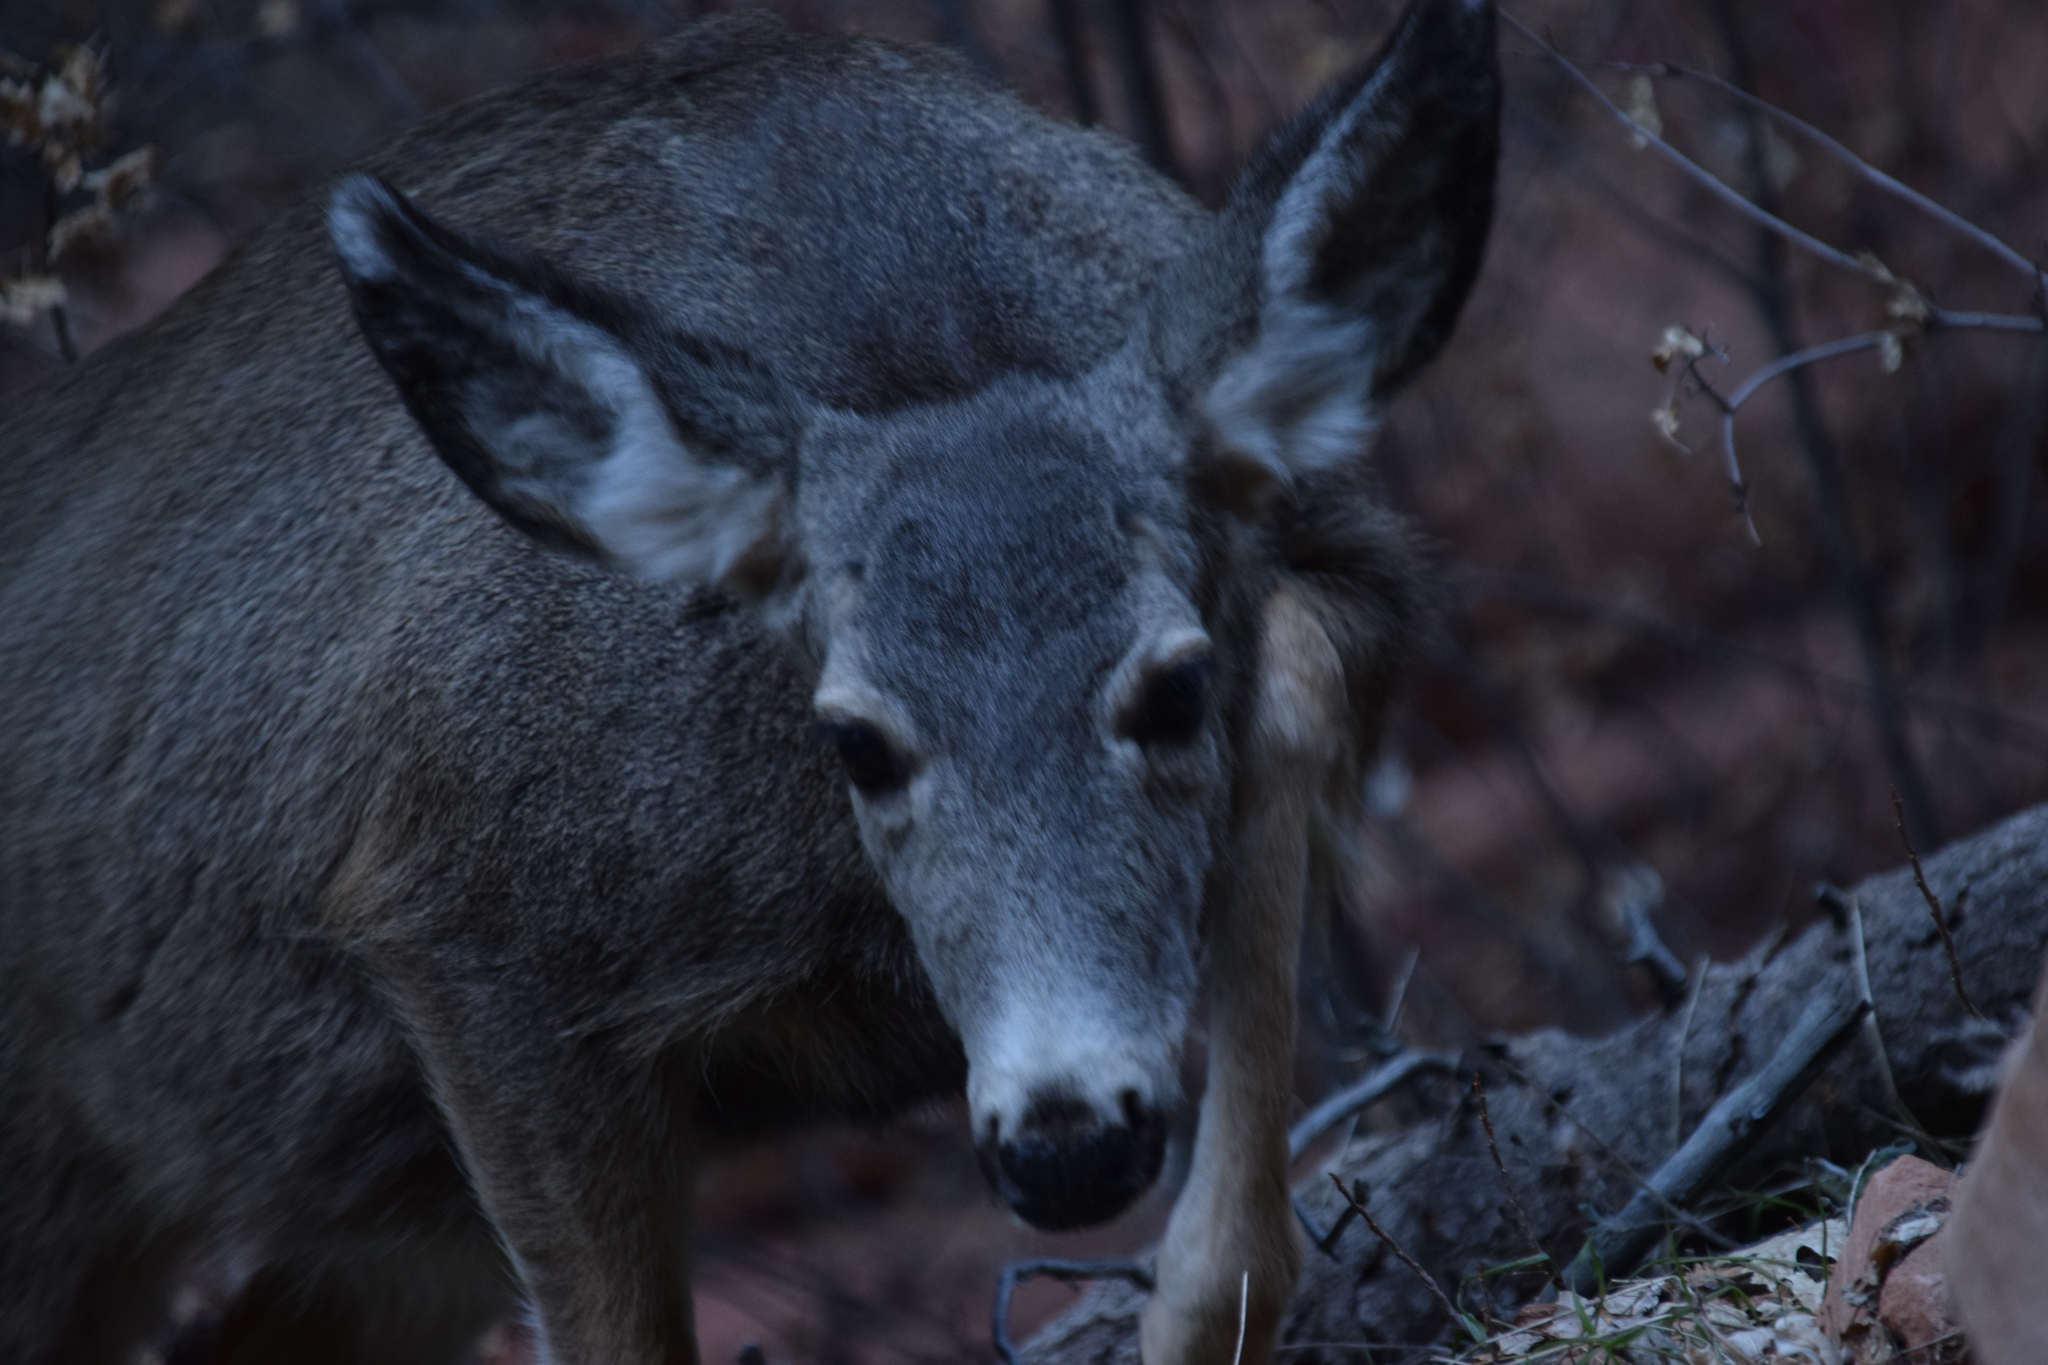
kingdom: Animalia
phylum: Chordata
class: Mammalia
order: Artiodactyla
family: Cervidae
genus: Odocoileus
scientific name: Odocoileus hemionus
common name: Mule deer
